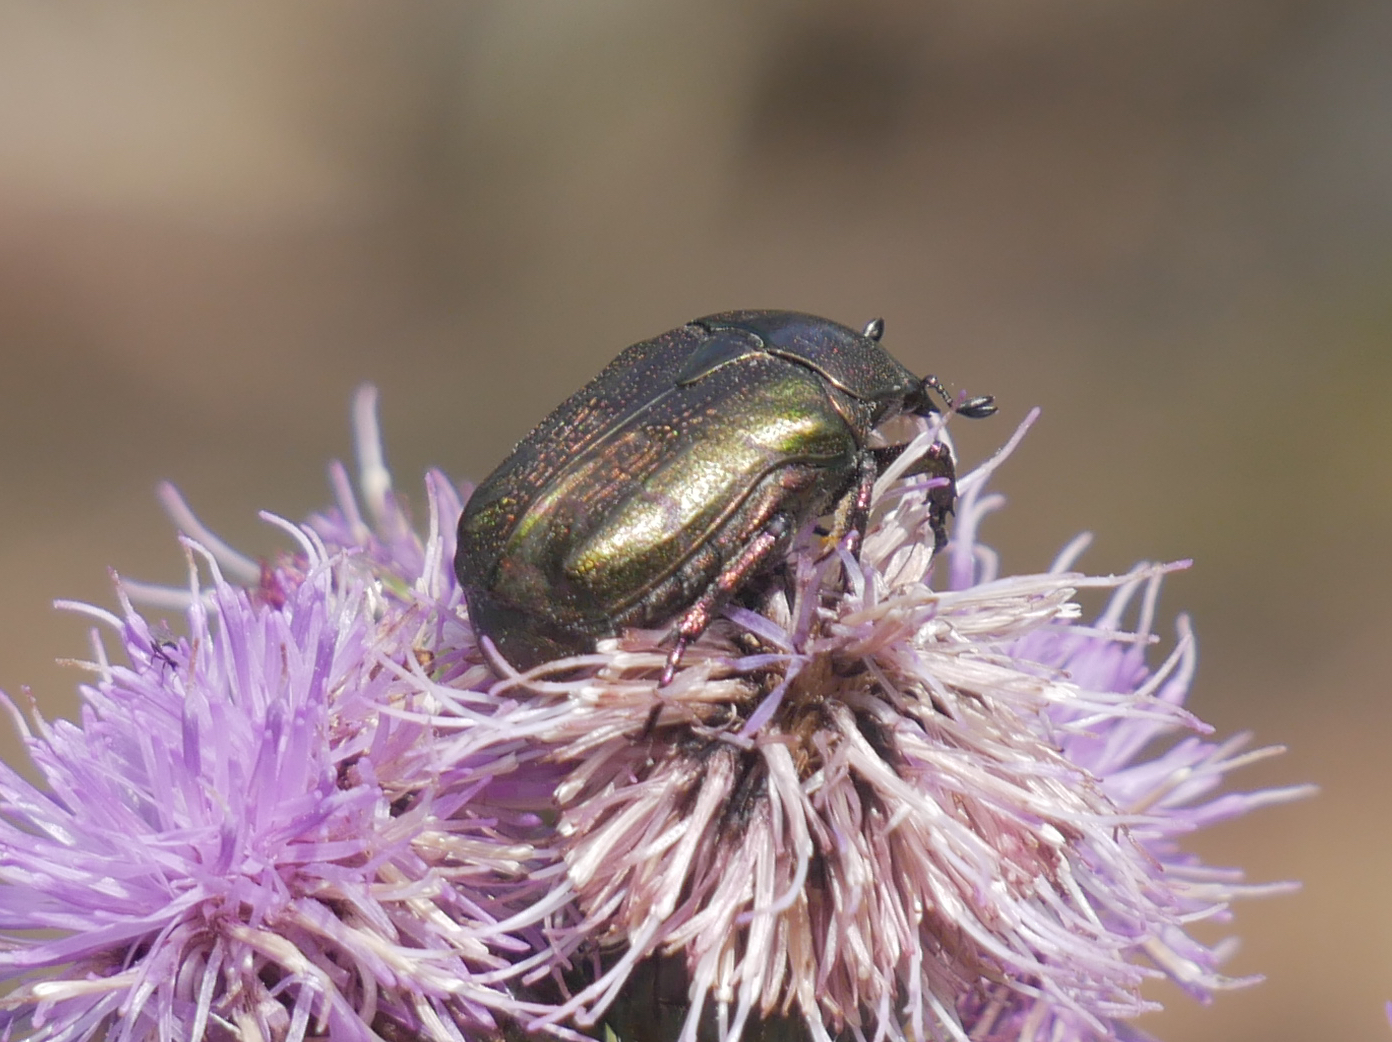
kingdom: Animalia
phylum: Arthropoda
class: Insecta
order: Coleoptera
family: Scarabaeidae
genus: Protaetia
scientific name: Protaetia cuprea
